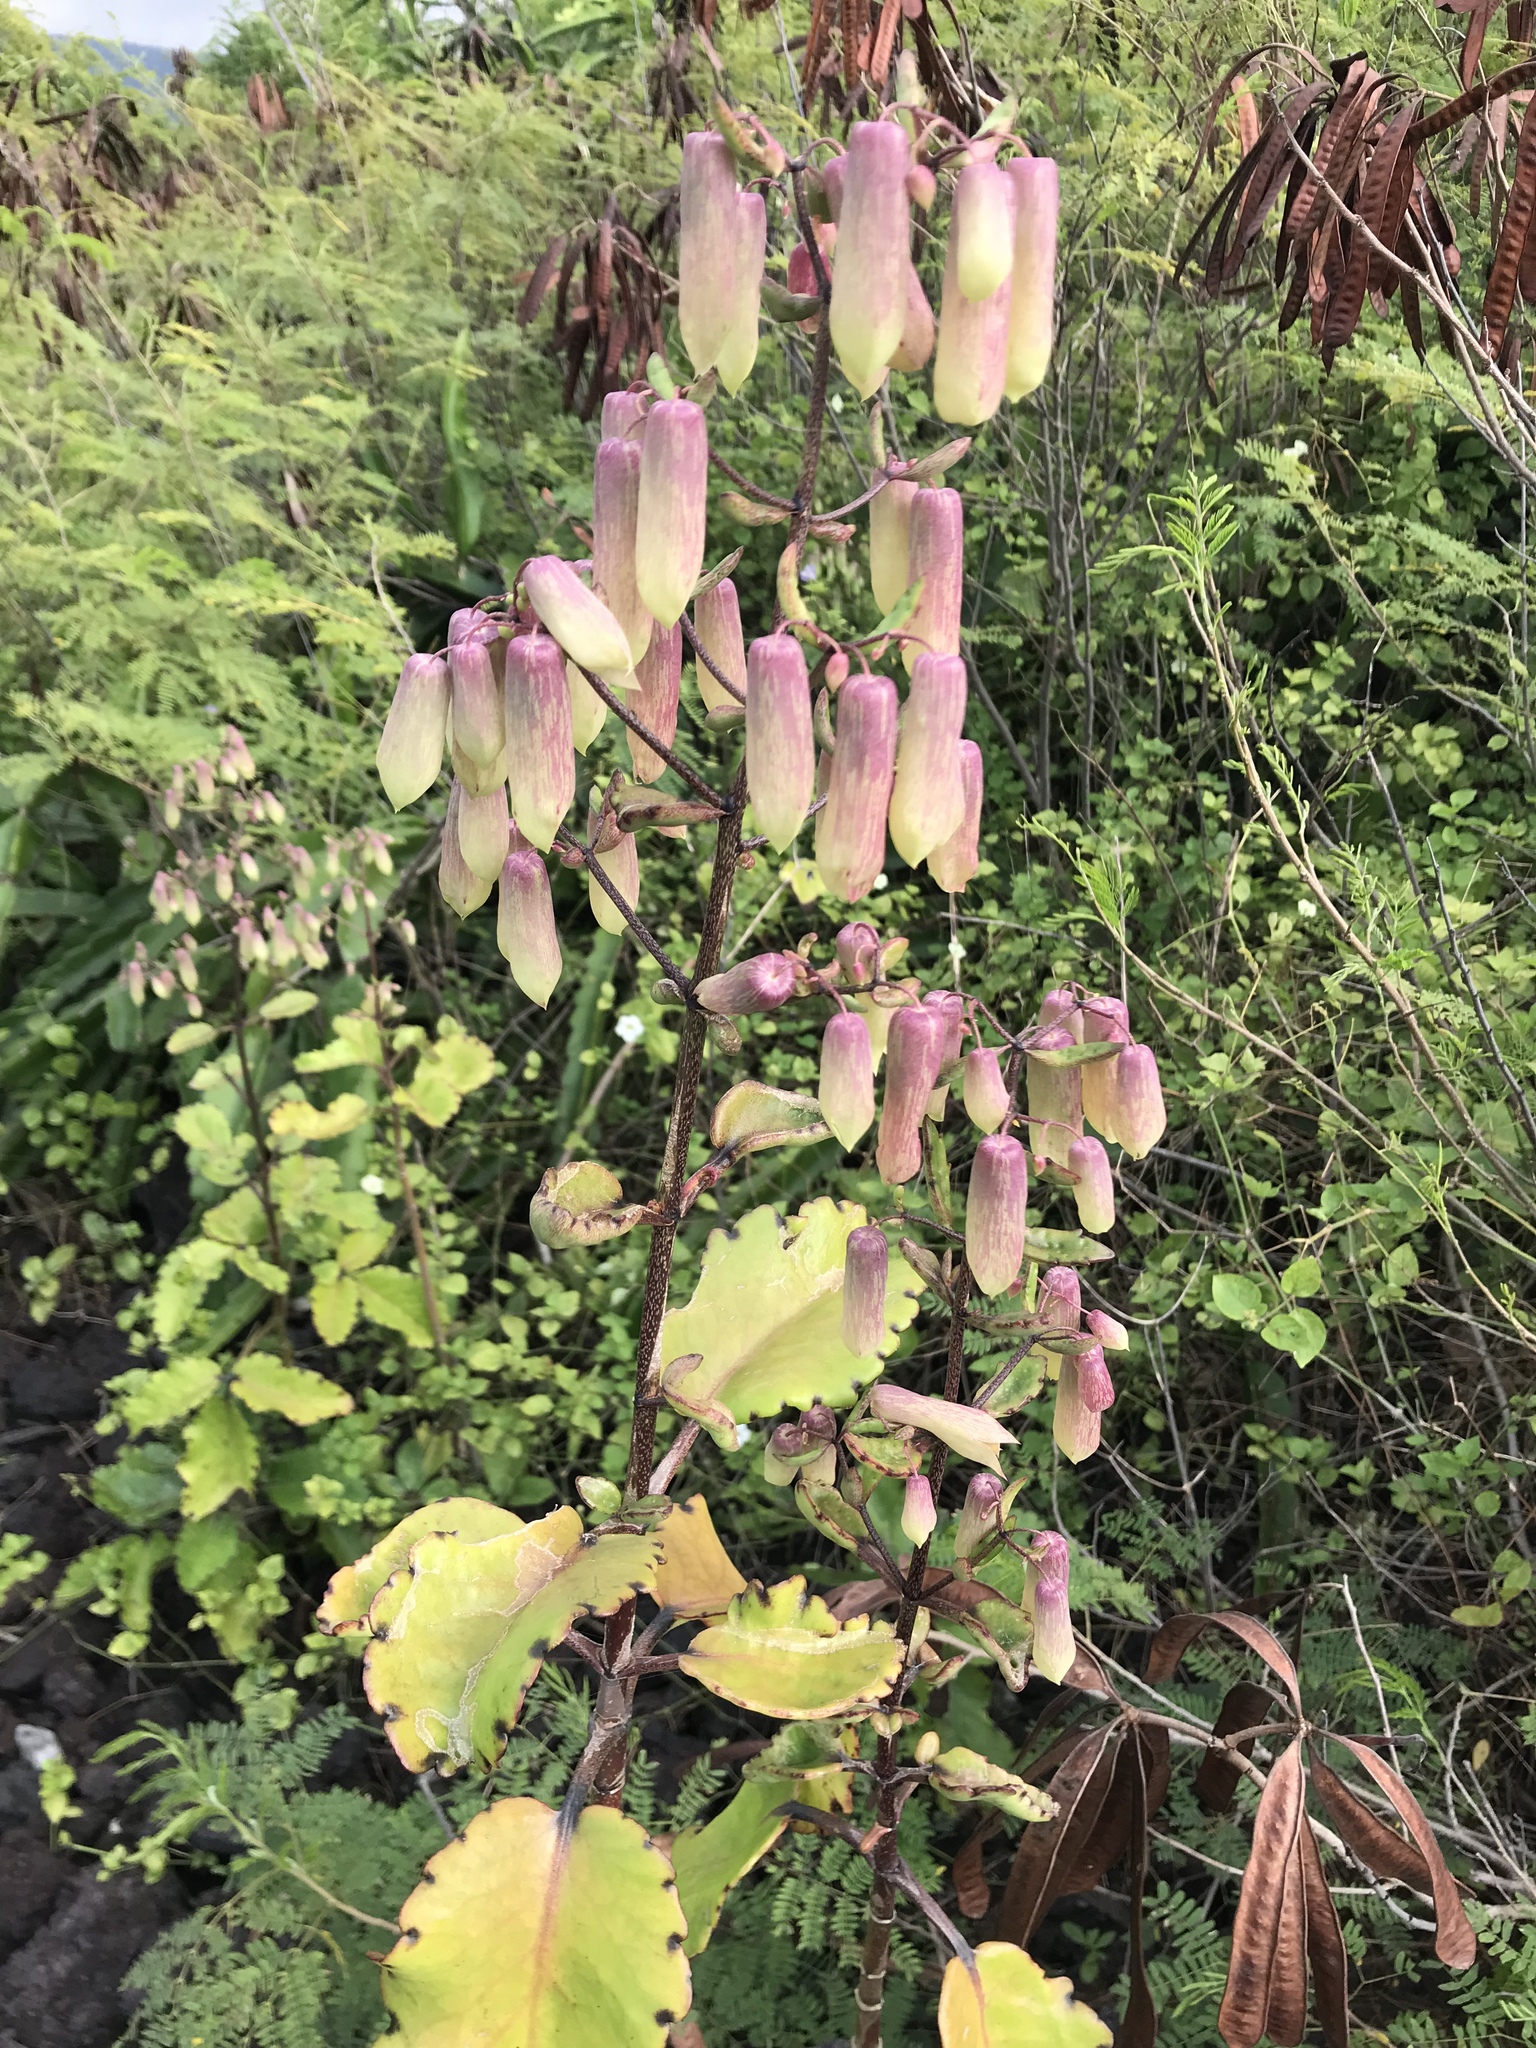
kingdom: Plantae
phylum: Tracheophyta
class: Magnoliopsida
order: Saxifragales
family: Crassulaceae
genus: Kalanchoe
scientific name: Kalanchoe pinnata
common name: Cathedral bells
